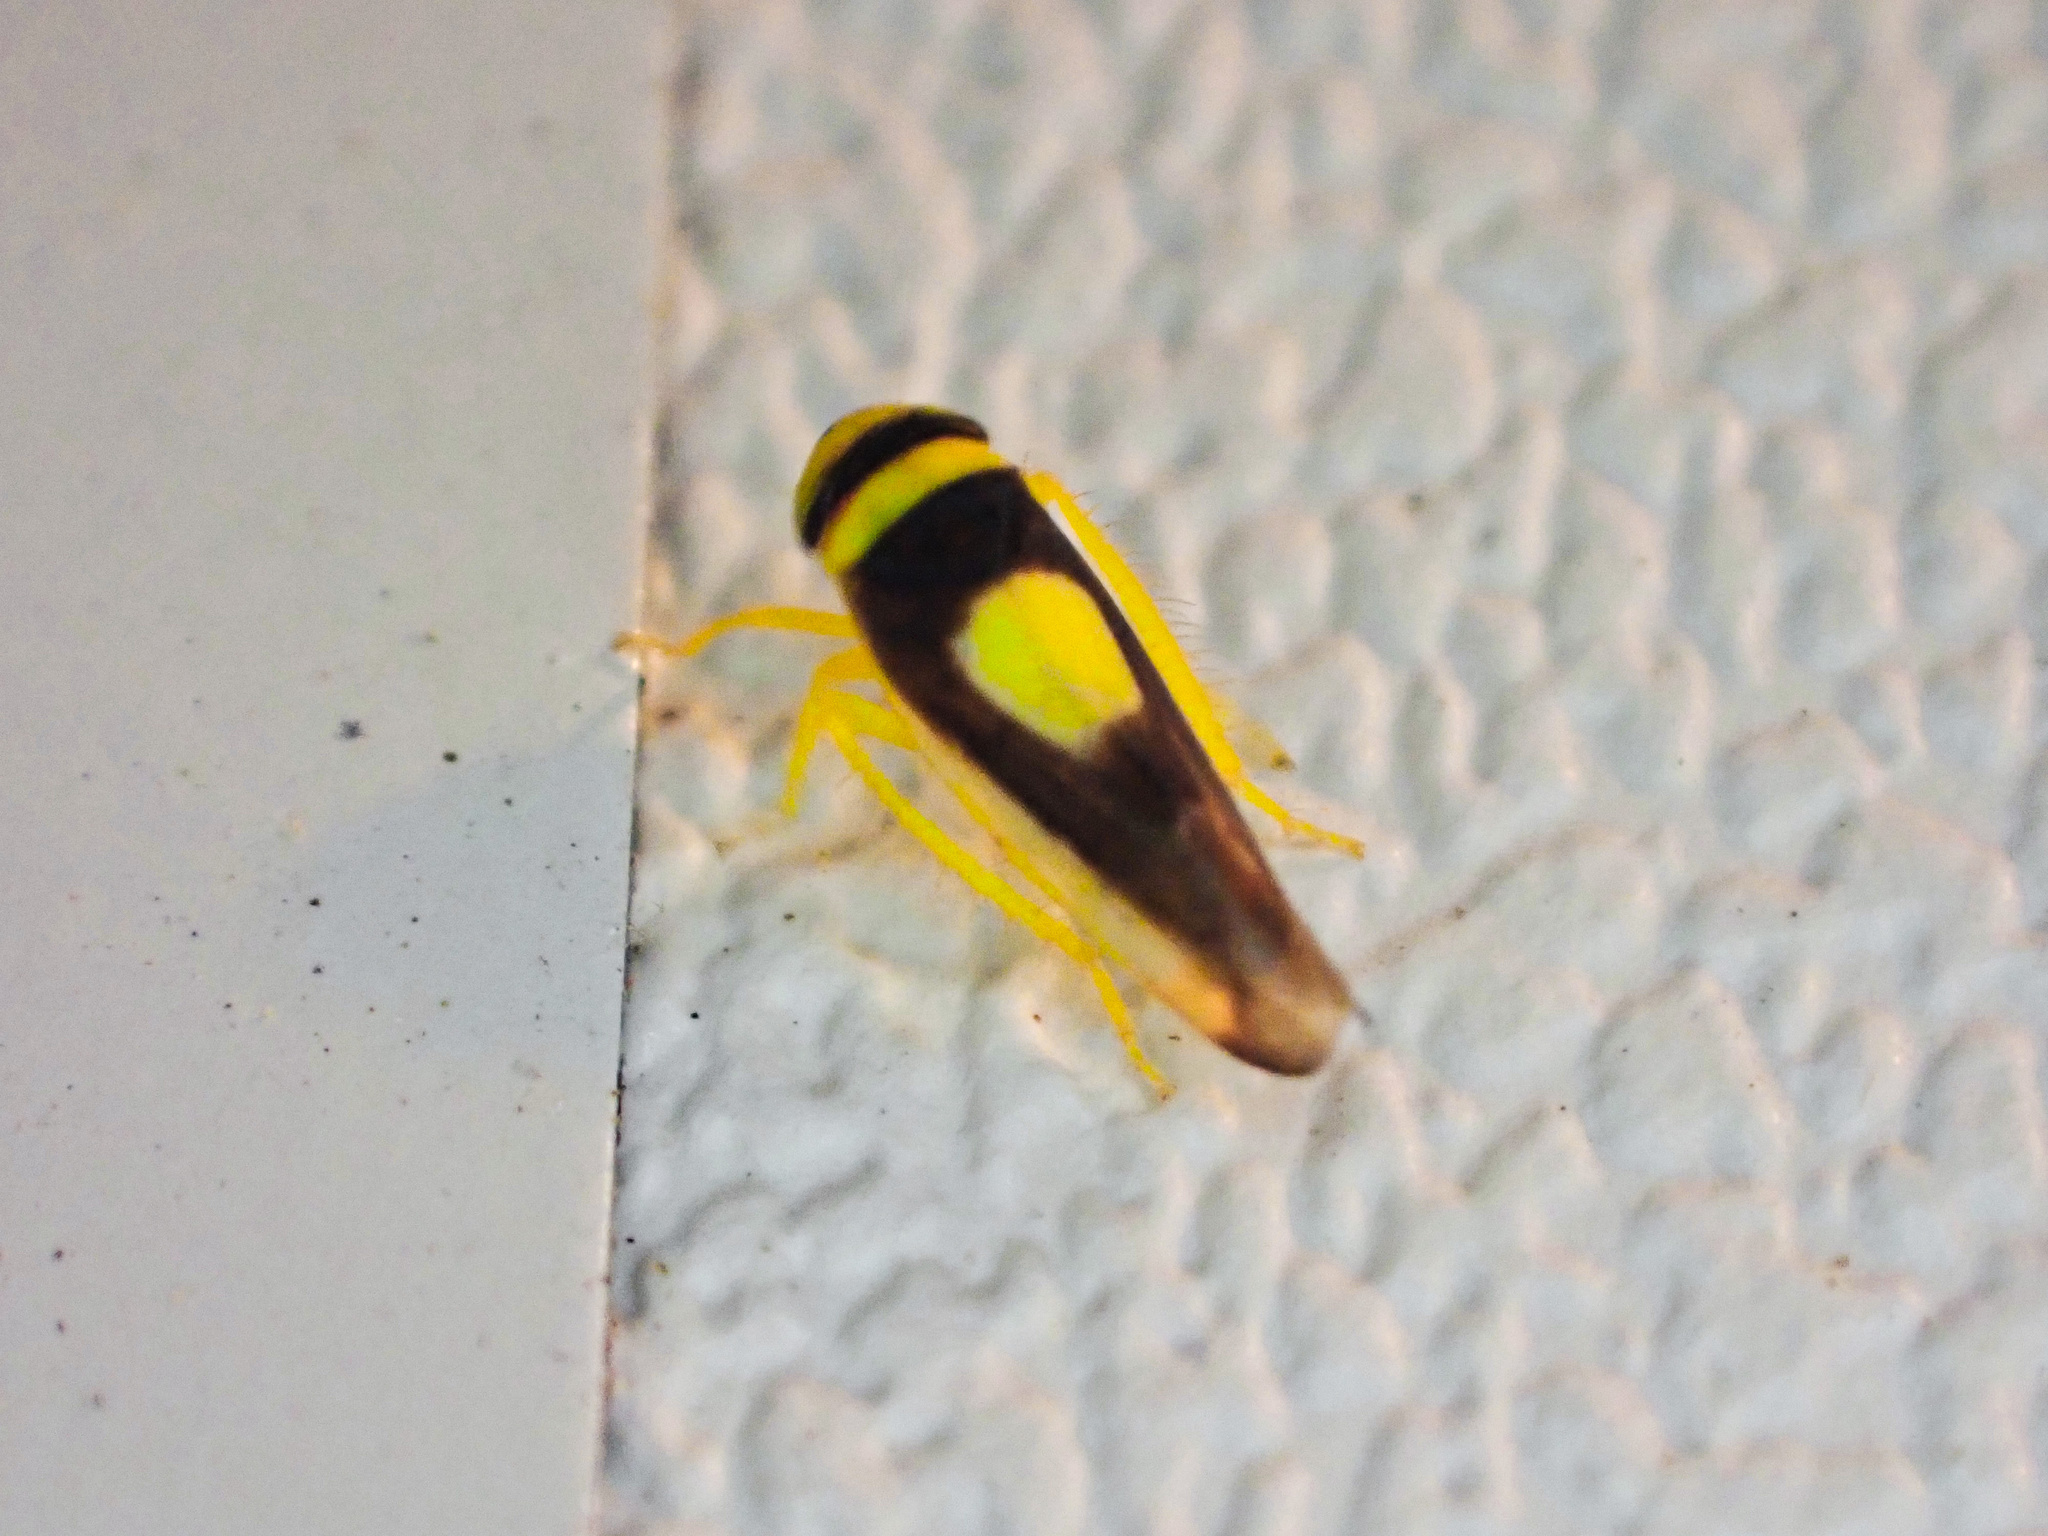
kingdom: Animalia
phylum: Arthropoda
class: Insecta
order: Hemiptera
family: Cicadellidae
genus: Colladonus
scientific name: Colladonus clitellarius
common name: The saddleback leafhopper
